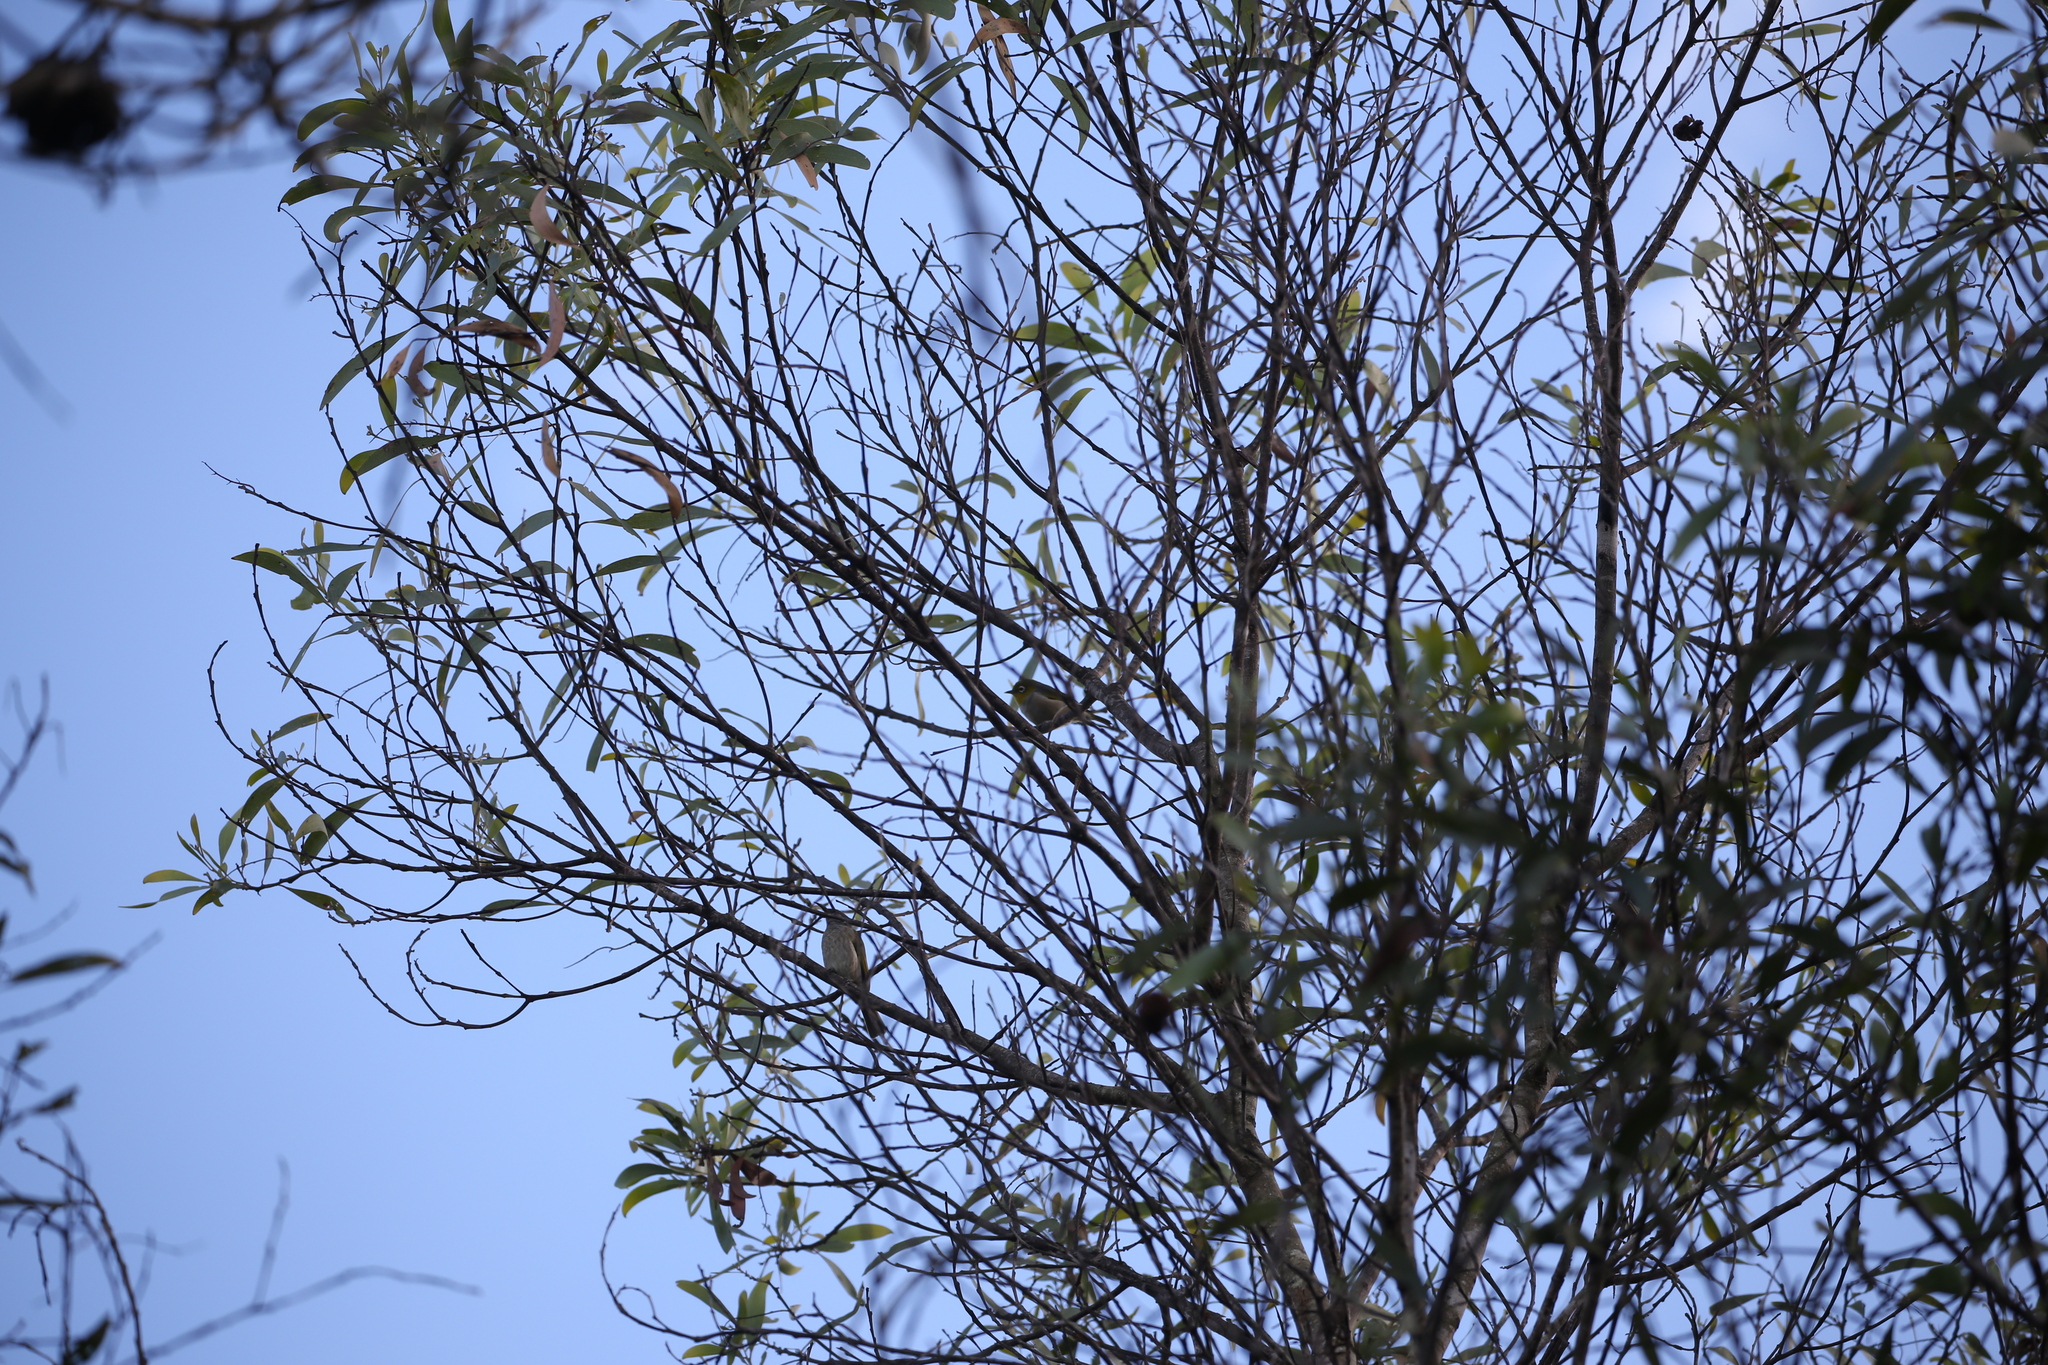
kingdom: Animalia
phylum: Chordata
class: Aves
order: Passeriformes
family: Meliphagidae
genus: Lichmera
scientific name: Lichmera indistincta
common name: Brown honeyeater
